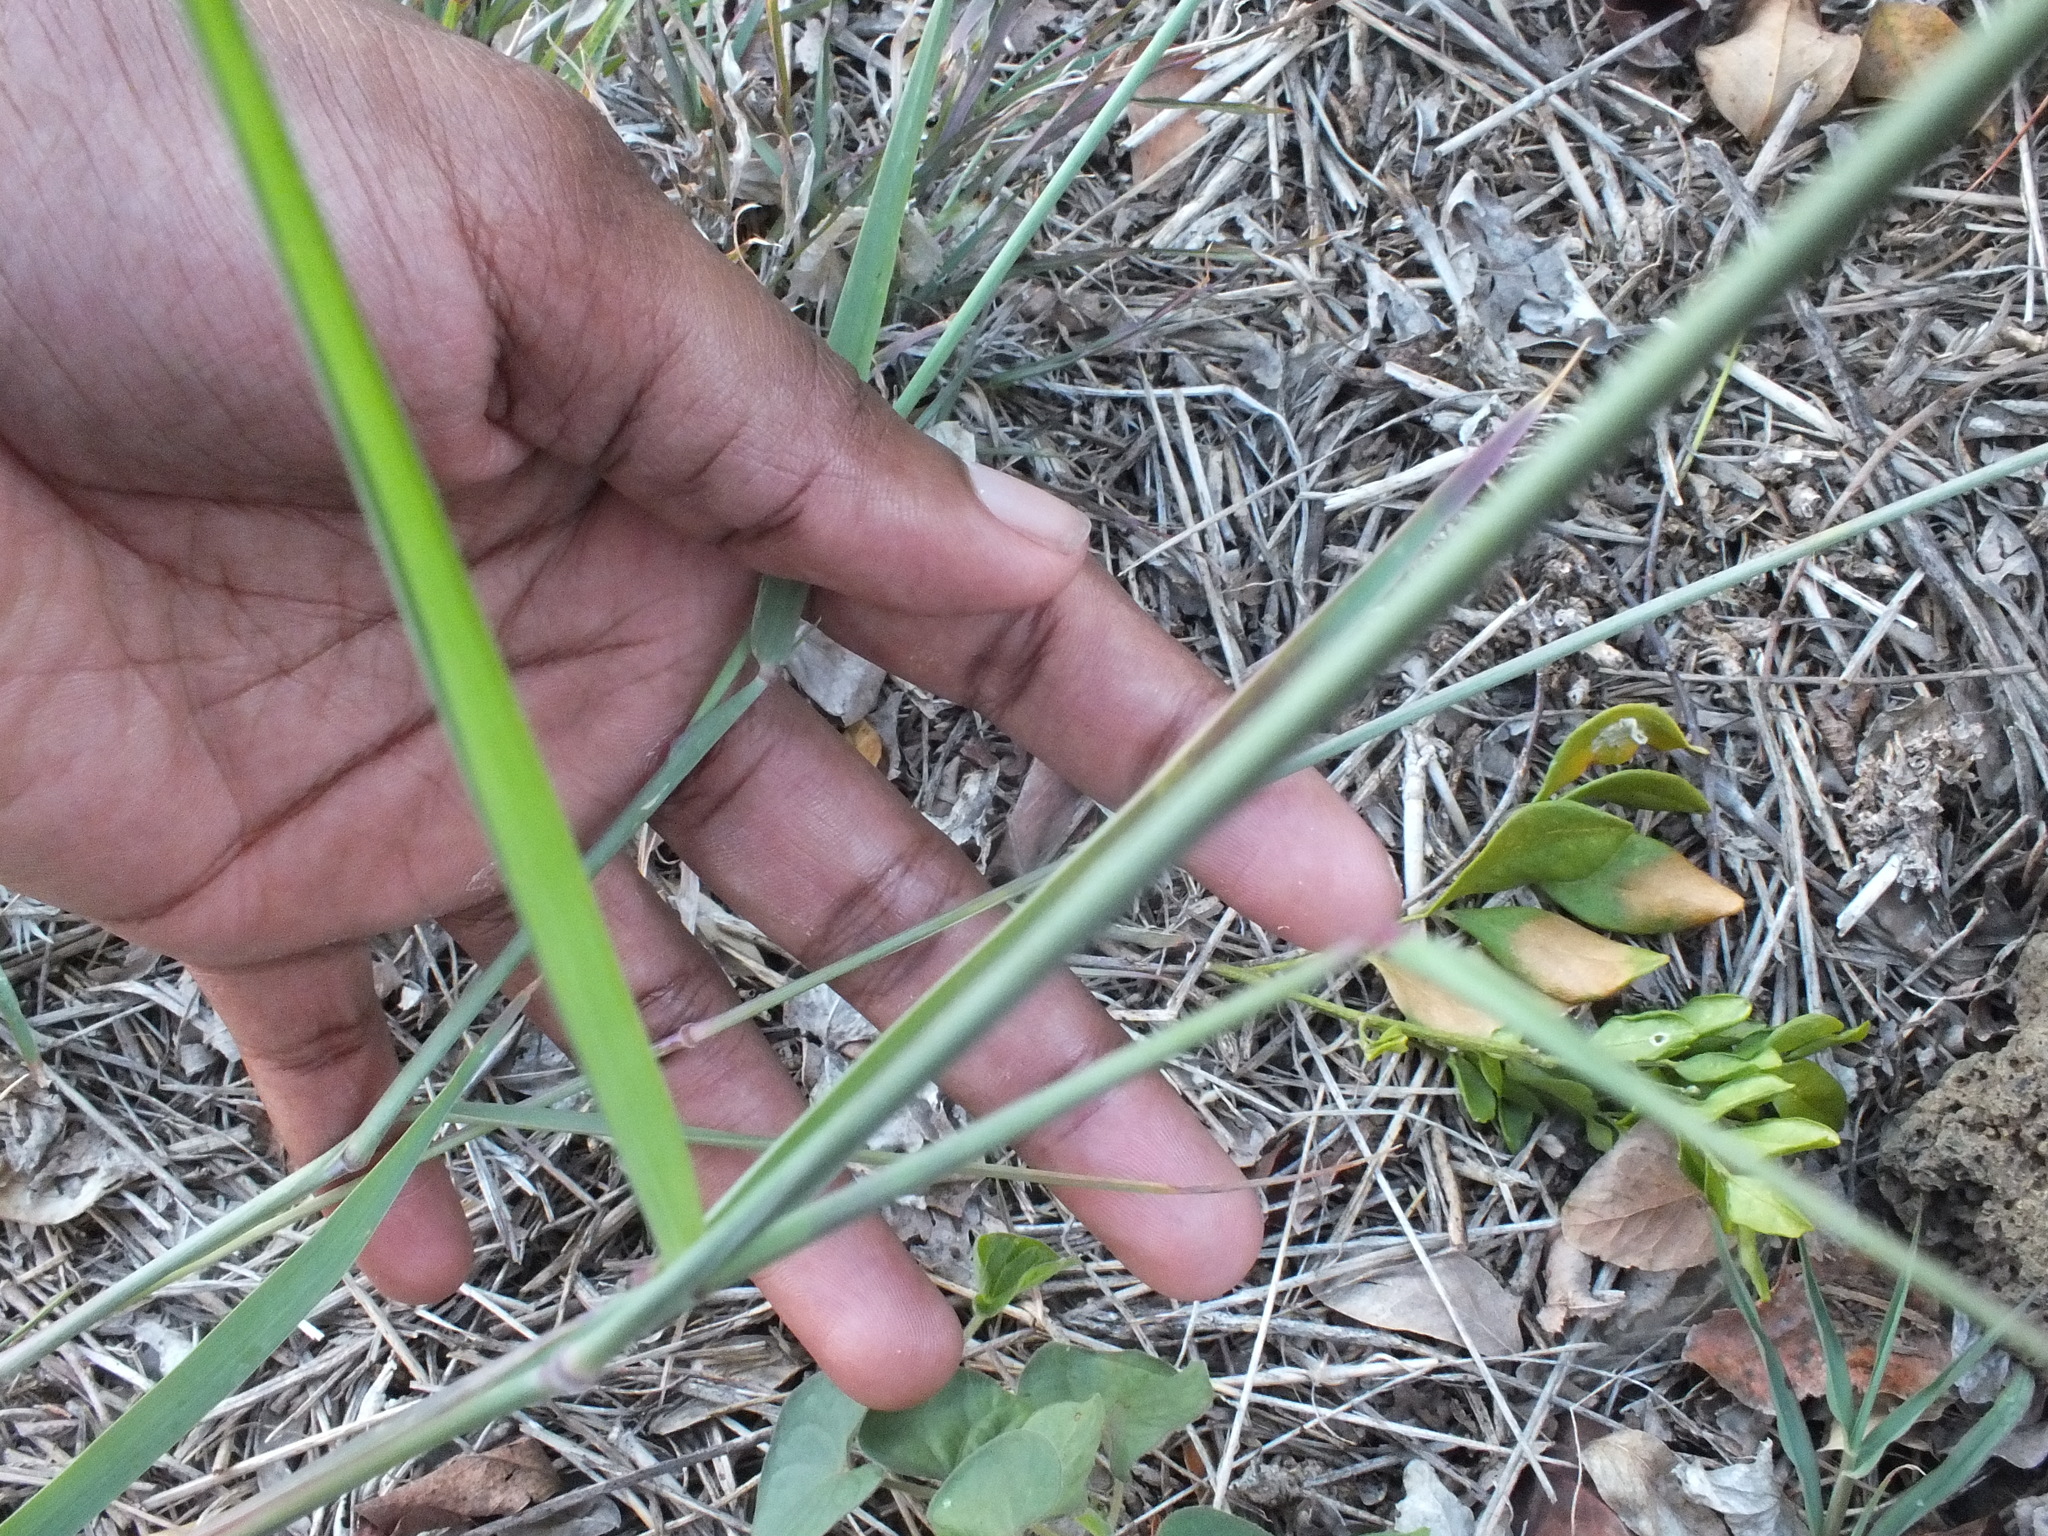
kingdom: Plantae
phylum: Tracheophyta
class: Liliopsida
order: Poales
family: Poaceae
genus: Melinis
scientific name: Melinis repens
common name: Rose natal grass
